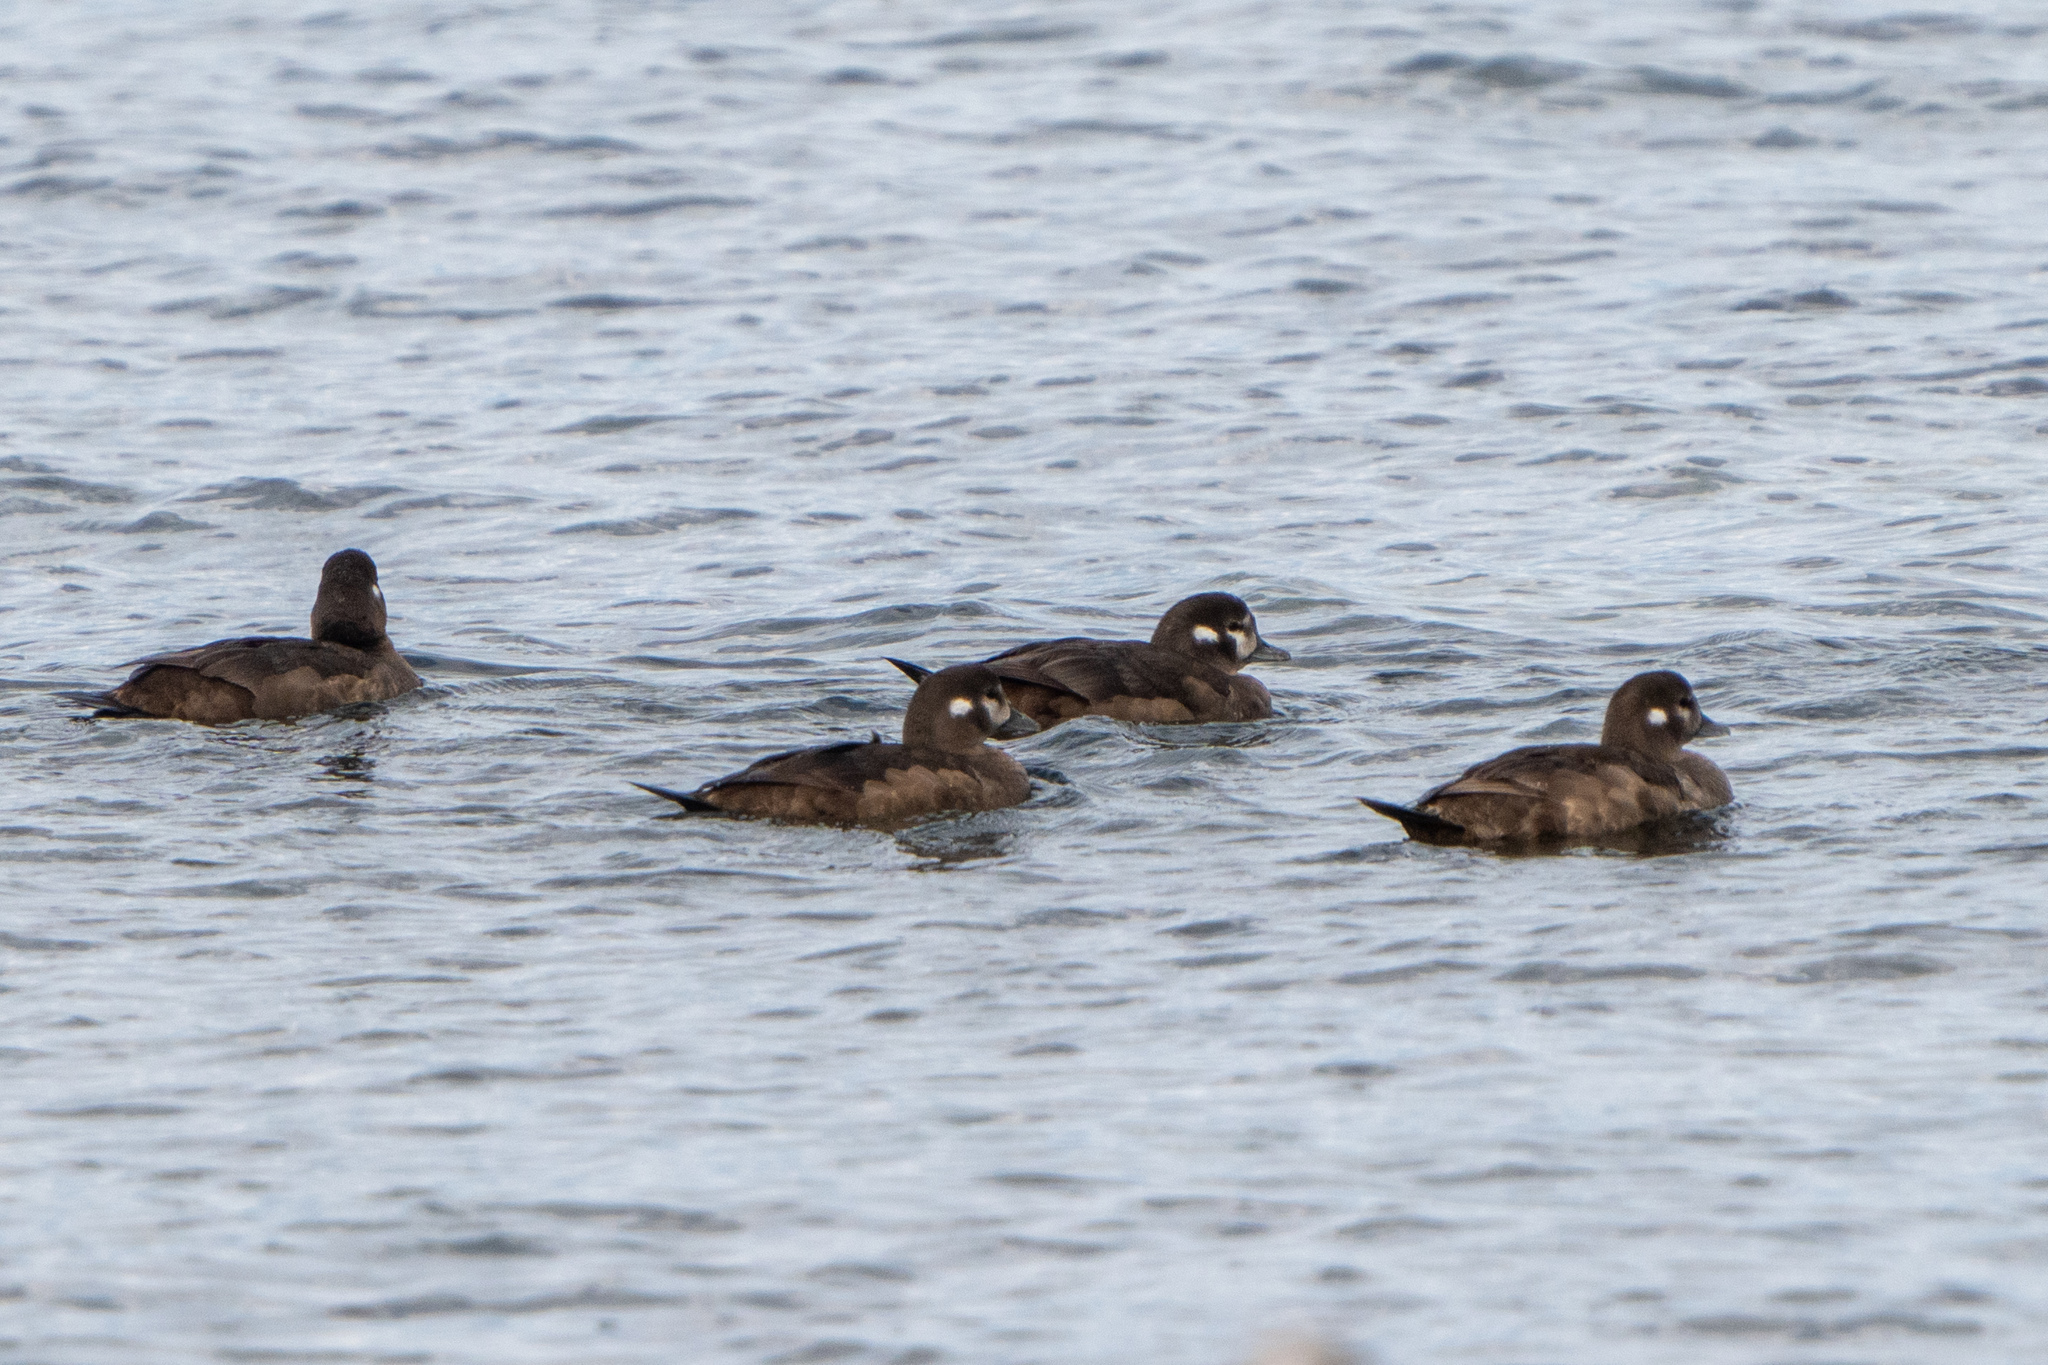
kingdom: Animalia
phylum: Chordata
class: Aves
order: Anseriformes
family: Anatidae
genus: Histrionicus
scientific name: Histrionicus histrionicus
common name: Harlequin duck
